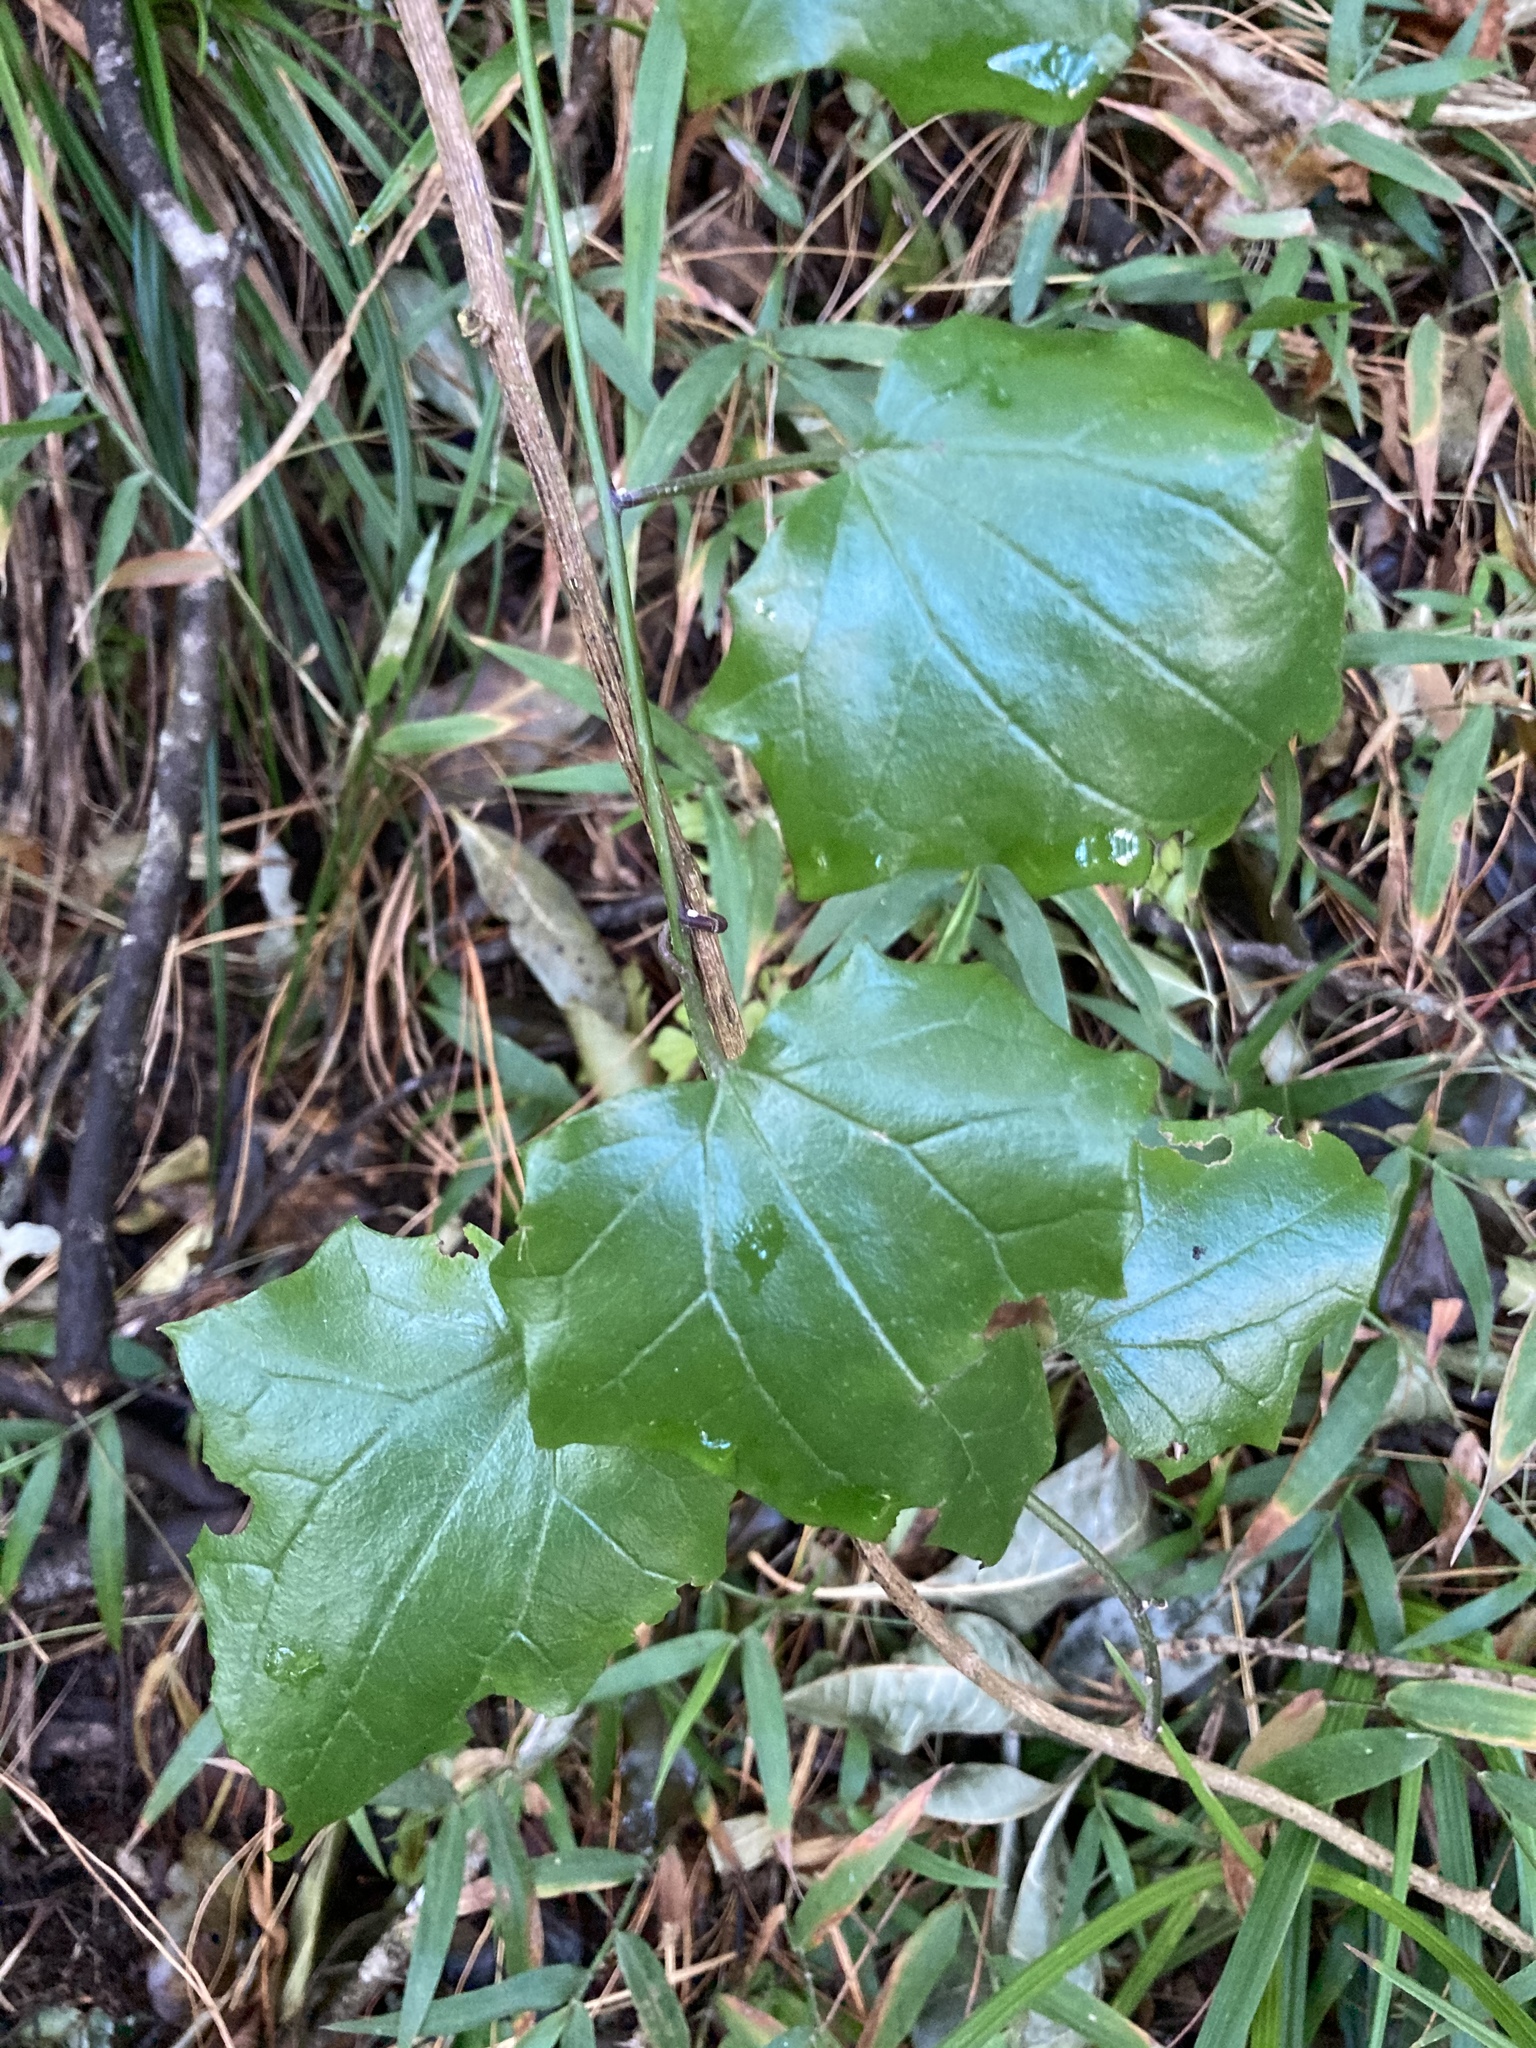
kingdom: Plantae
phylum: Tracheophyta
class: Magnoliopsida
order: Asterales
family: Asteraceae
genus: Mikaniopsis
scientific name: Mikaniopsis cissampelina
